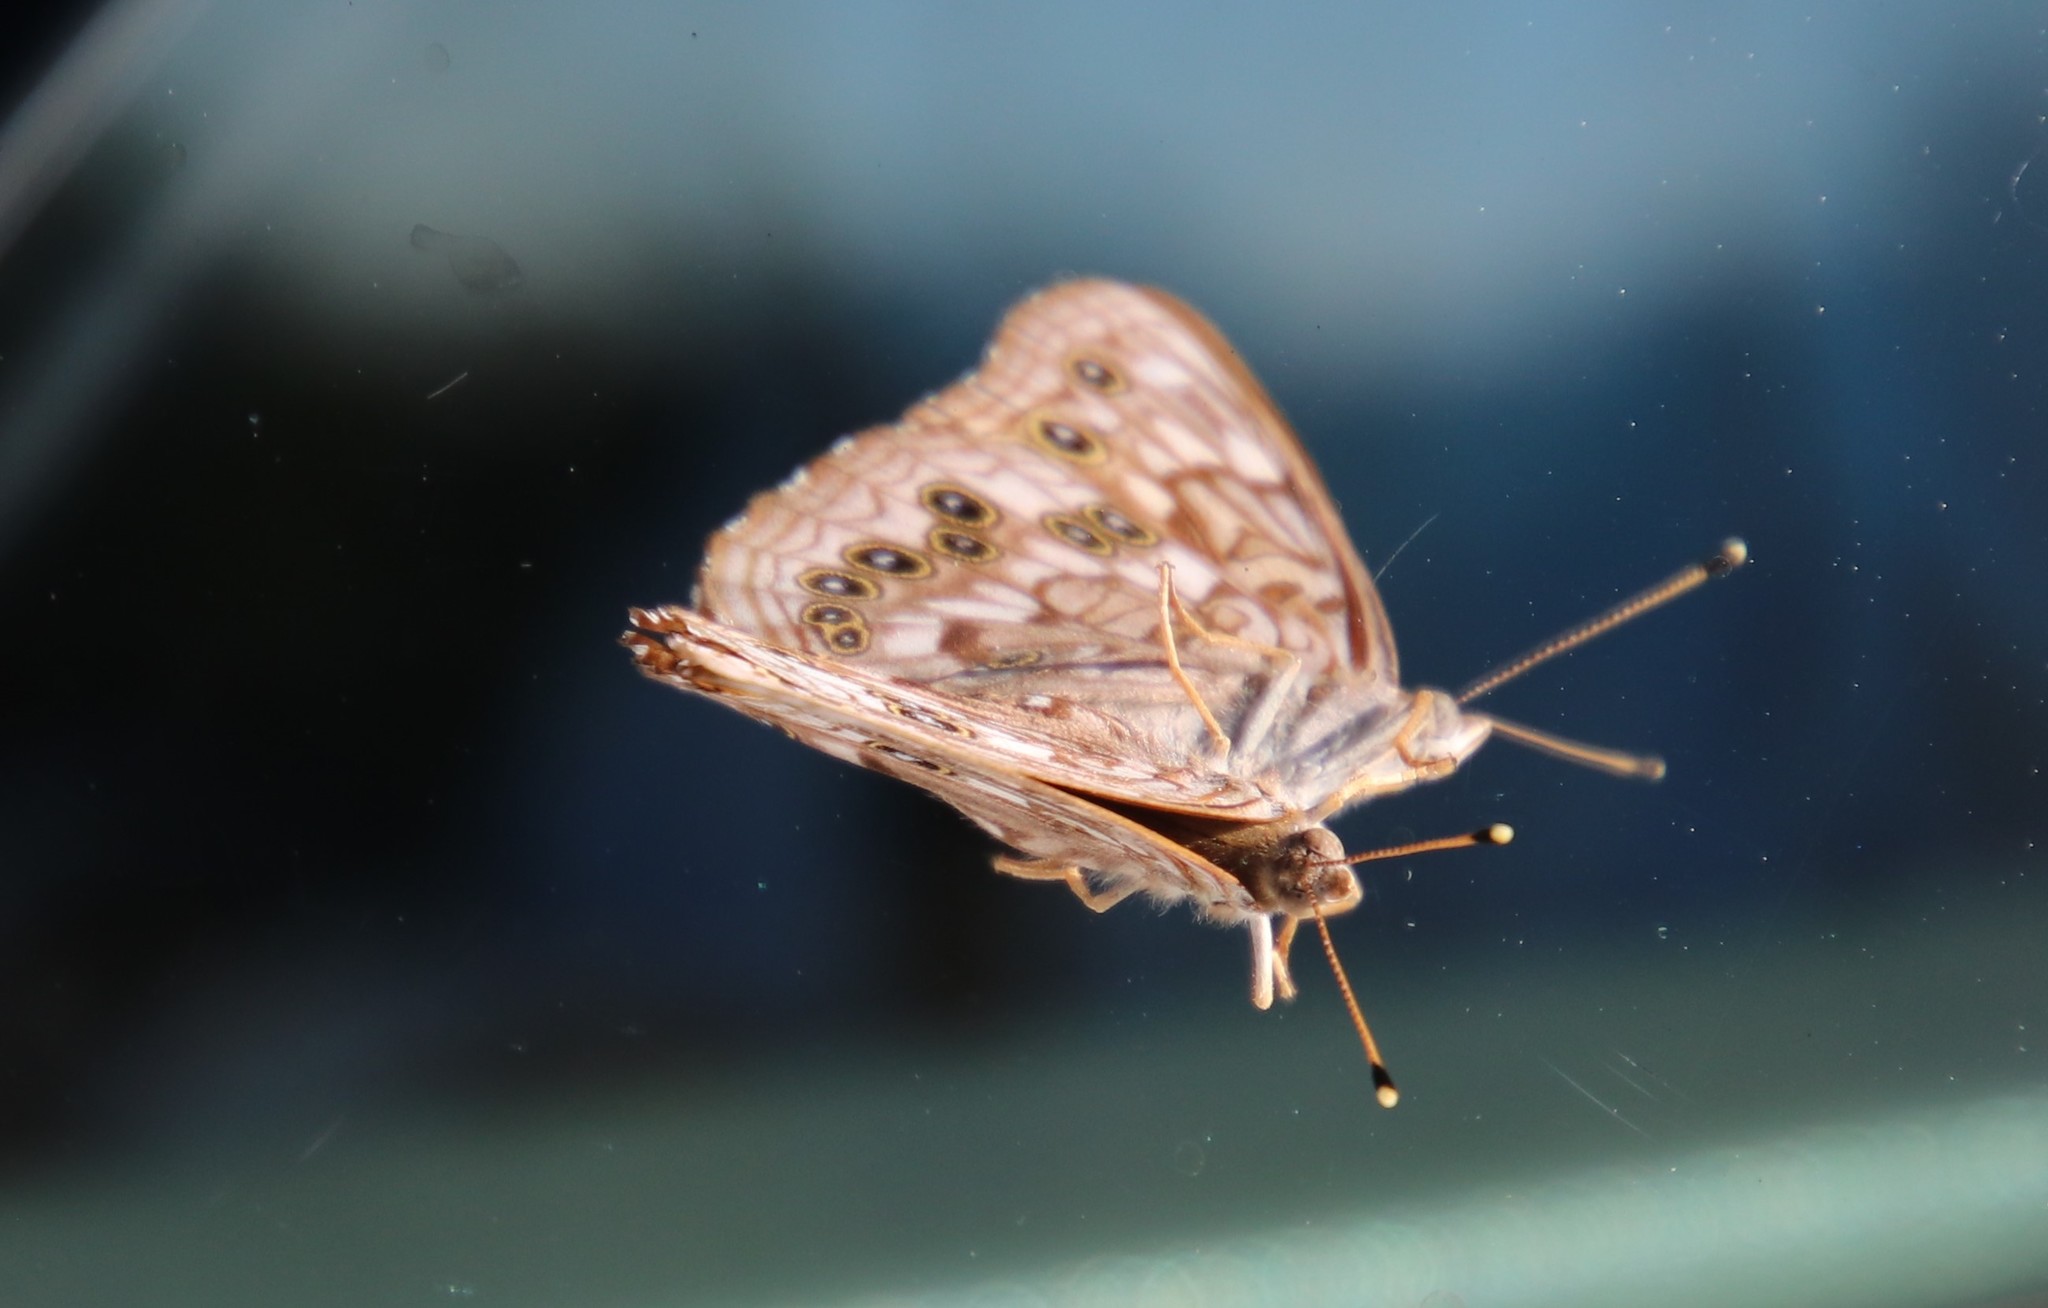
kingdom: Animalia
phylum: Arthropoda
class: Insecta
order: Lepidoptera
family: Nymphalidae
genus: Asterocampa
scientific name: Asterocampa celtis
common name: Hackberry emperor
